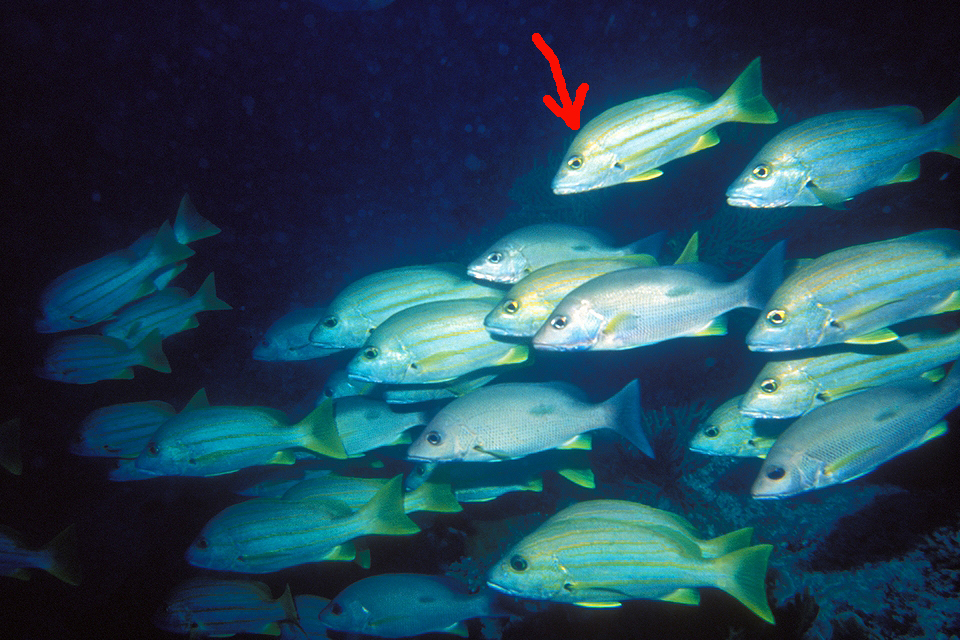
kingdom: Animalia
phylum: Chordata
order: Perciformes
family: Lutjanidae
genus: Lutjanus
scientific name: Lutjanus carponotatus
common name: Spanish flag
